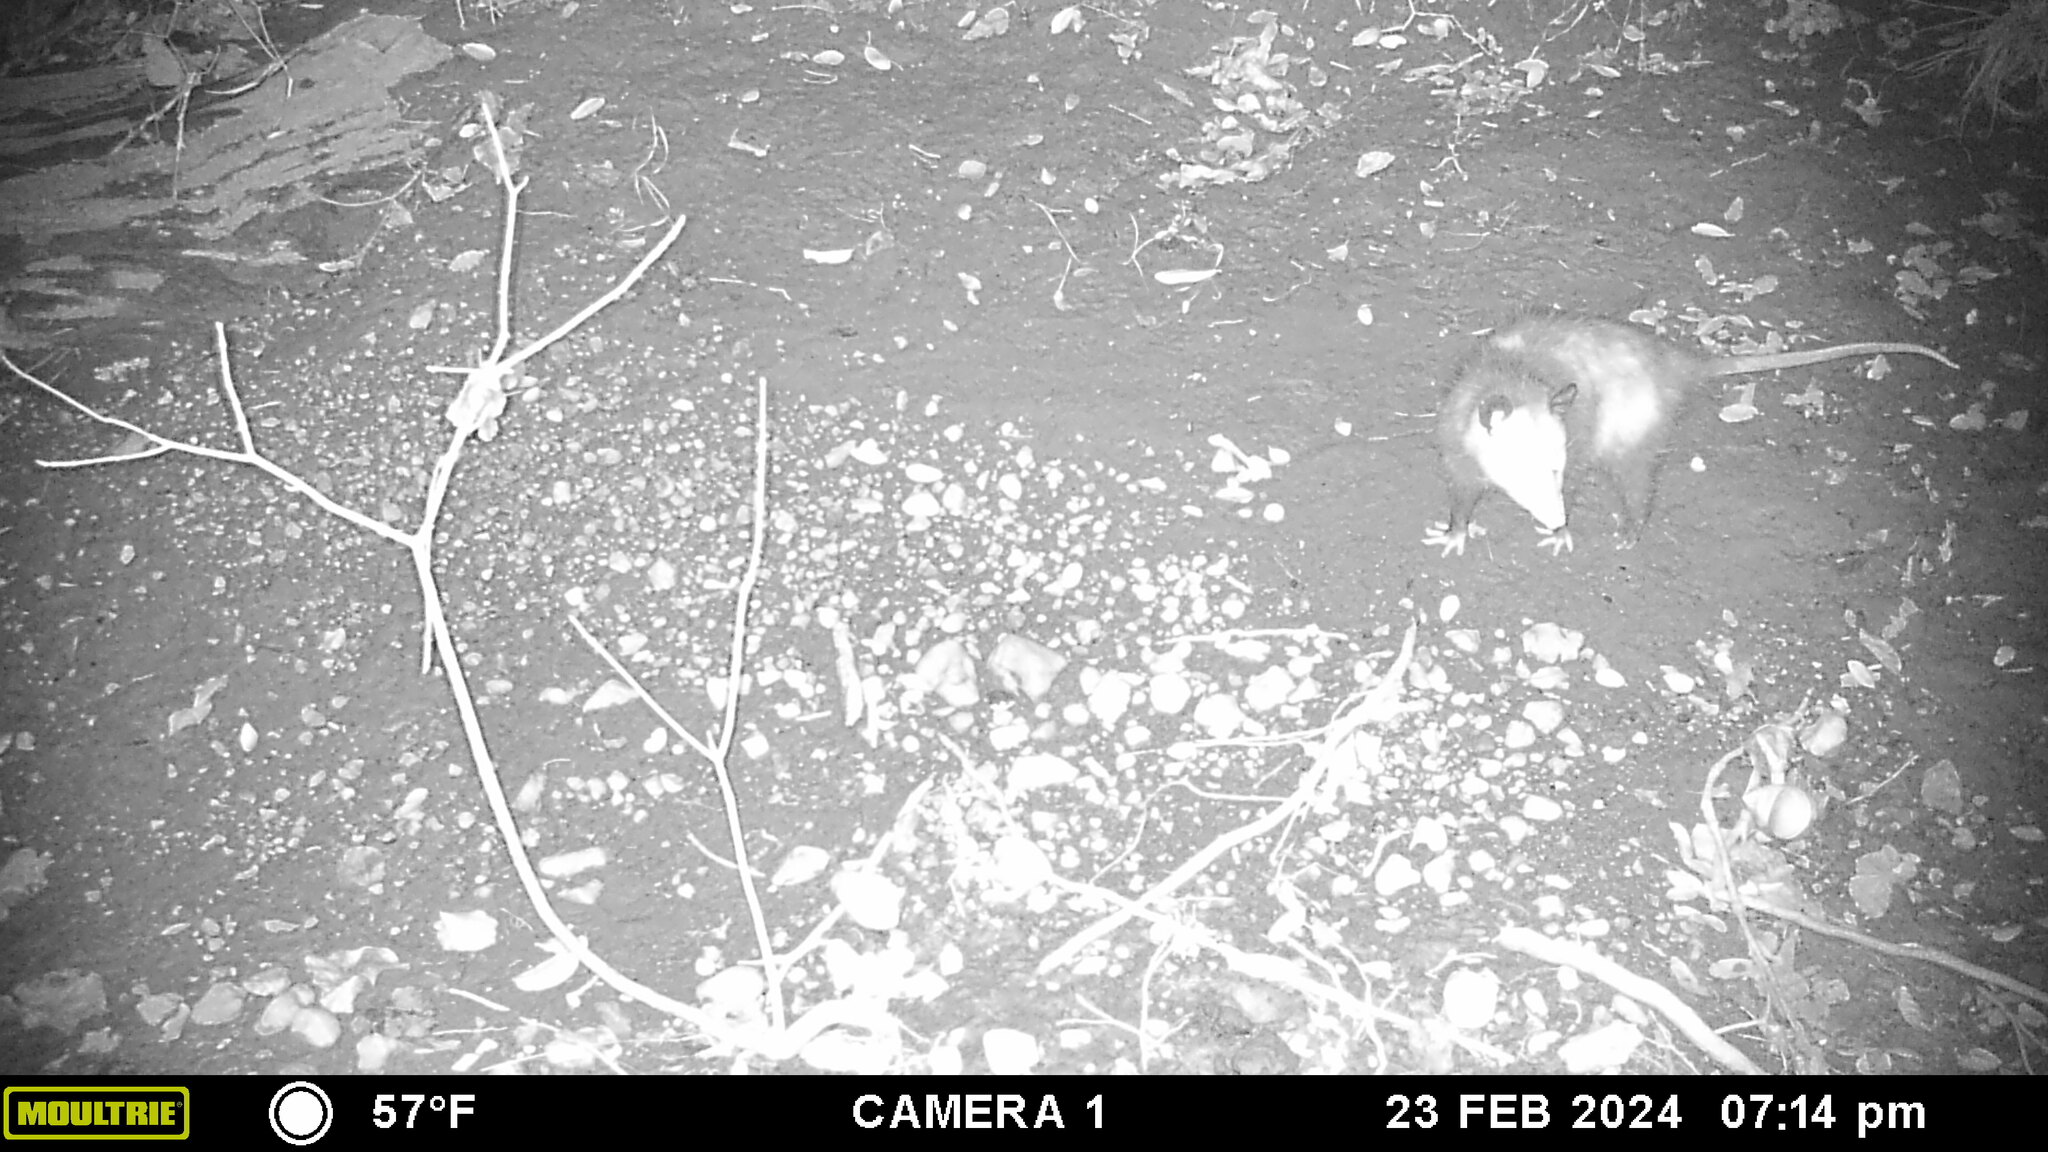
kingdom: Animalia
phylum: Chordata
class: Mammalia
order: Didelphimorphia
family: Didelphidae
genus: Didelphis
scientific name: Didelphis virginiana
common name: Virginia opossum
